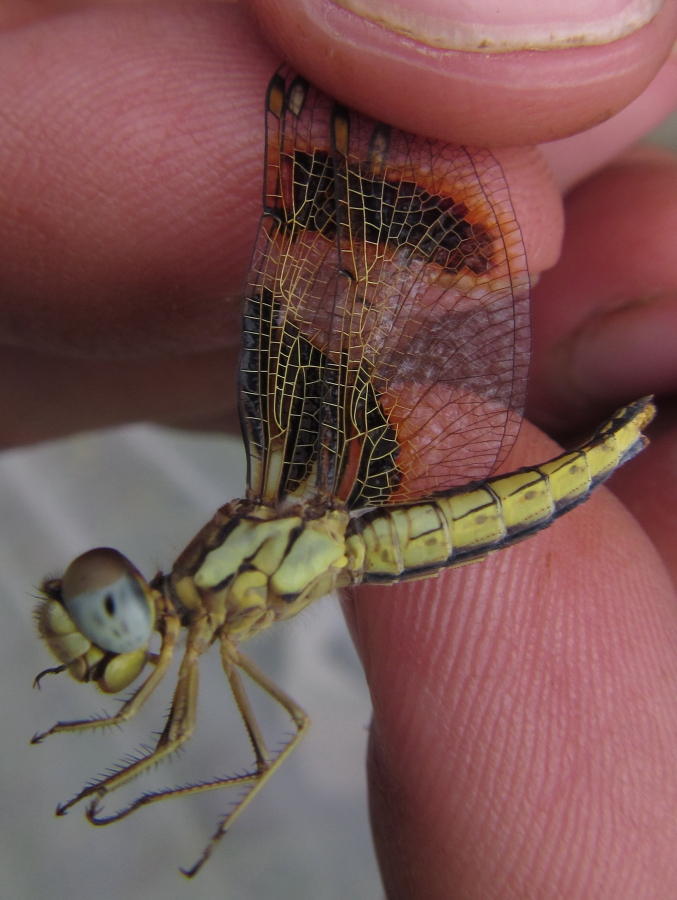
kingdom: Animalia
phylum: Arthropoda
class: Insecta
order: Odonata
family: Libellulidae
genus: Palpopleura
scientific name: Palpopleura jucunda
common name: Yellow-veined widow
